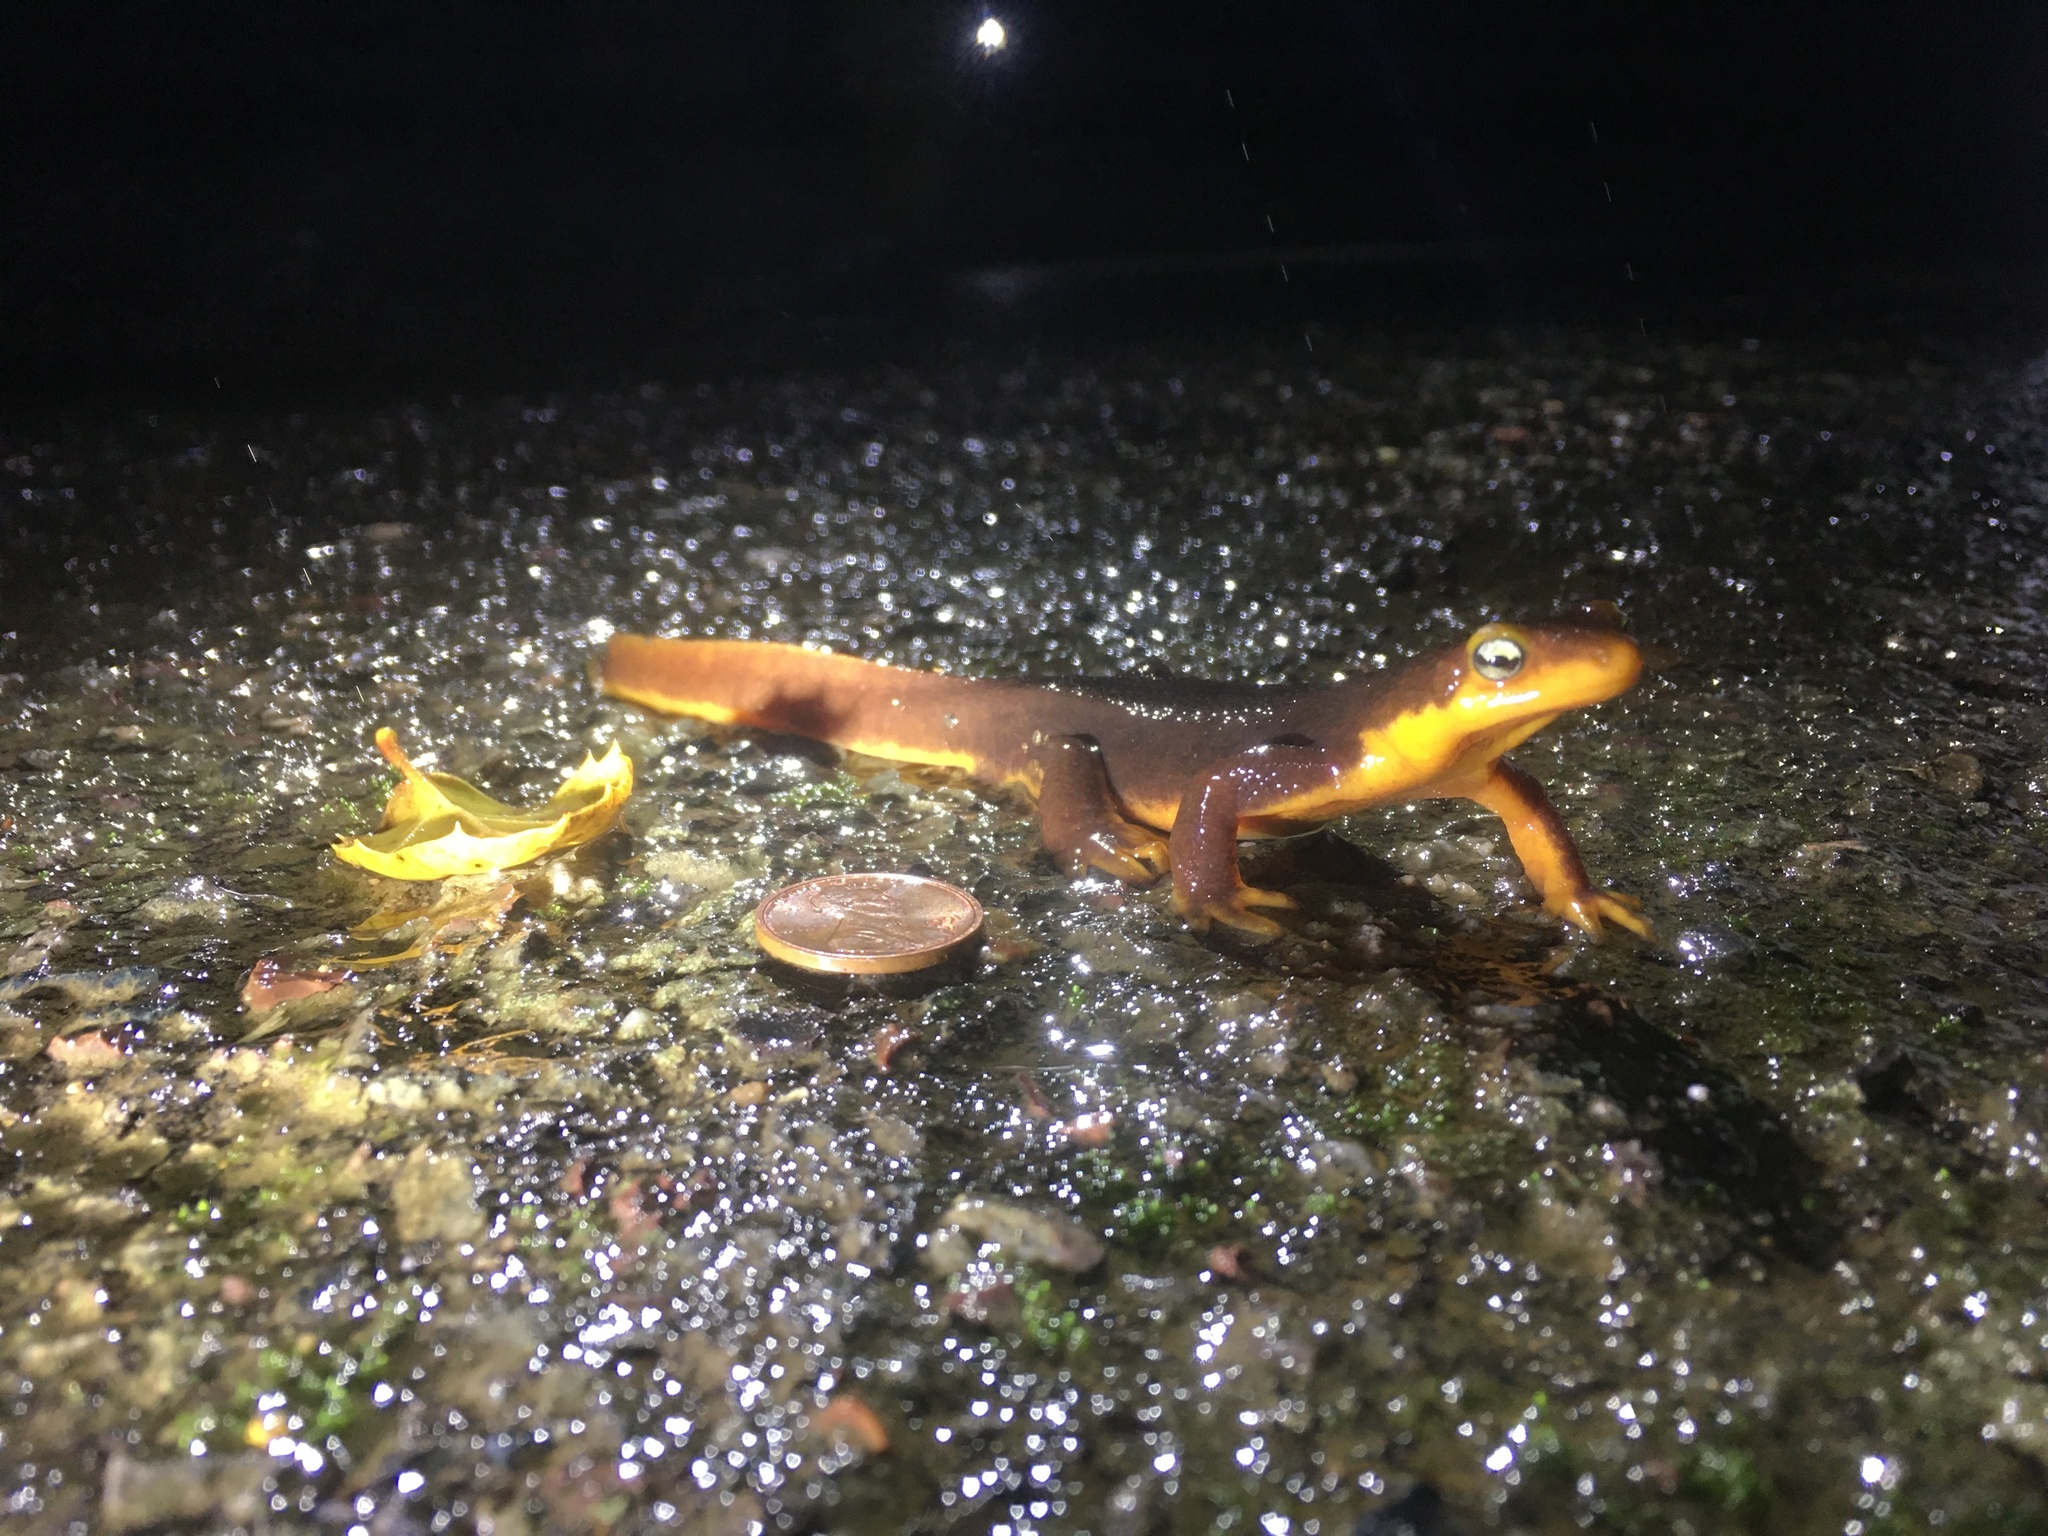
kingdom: Animalia
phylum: Chordata
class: Amphibia
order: Caudata
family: Salamandridae
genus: Taricha
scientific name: Taricha torosa
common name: California newt
